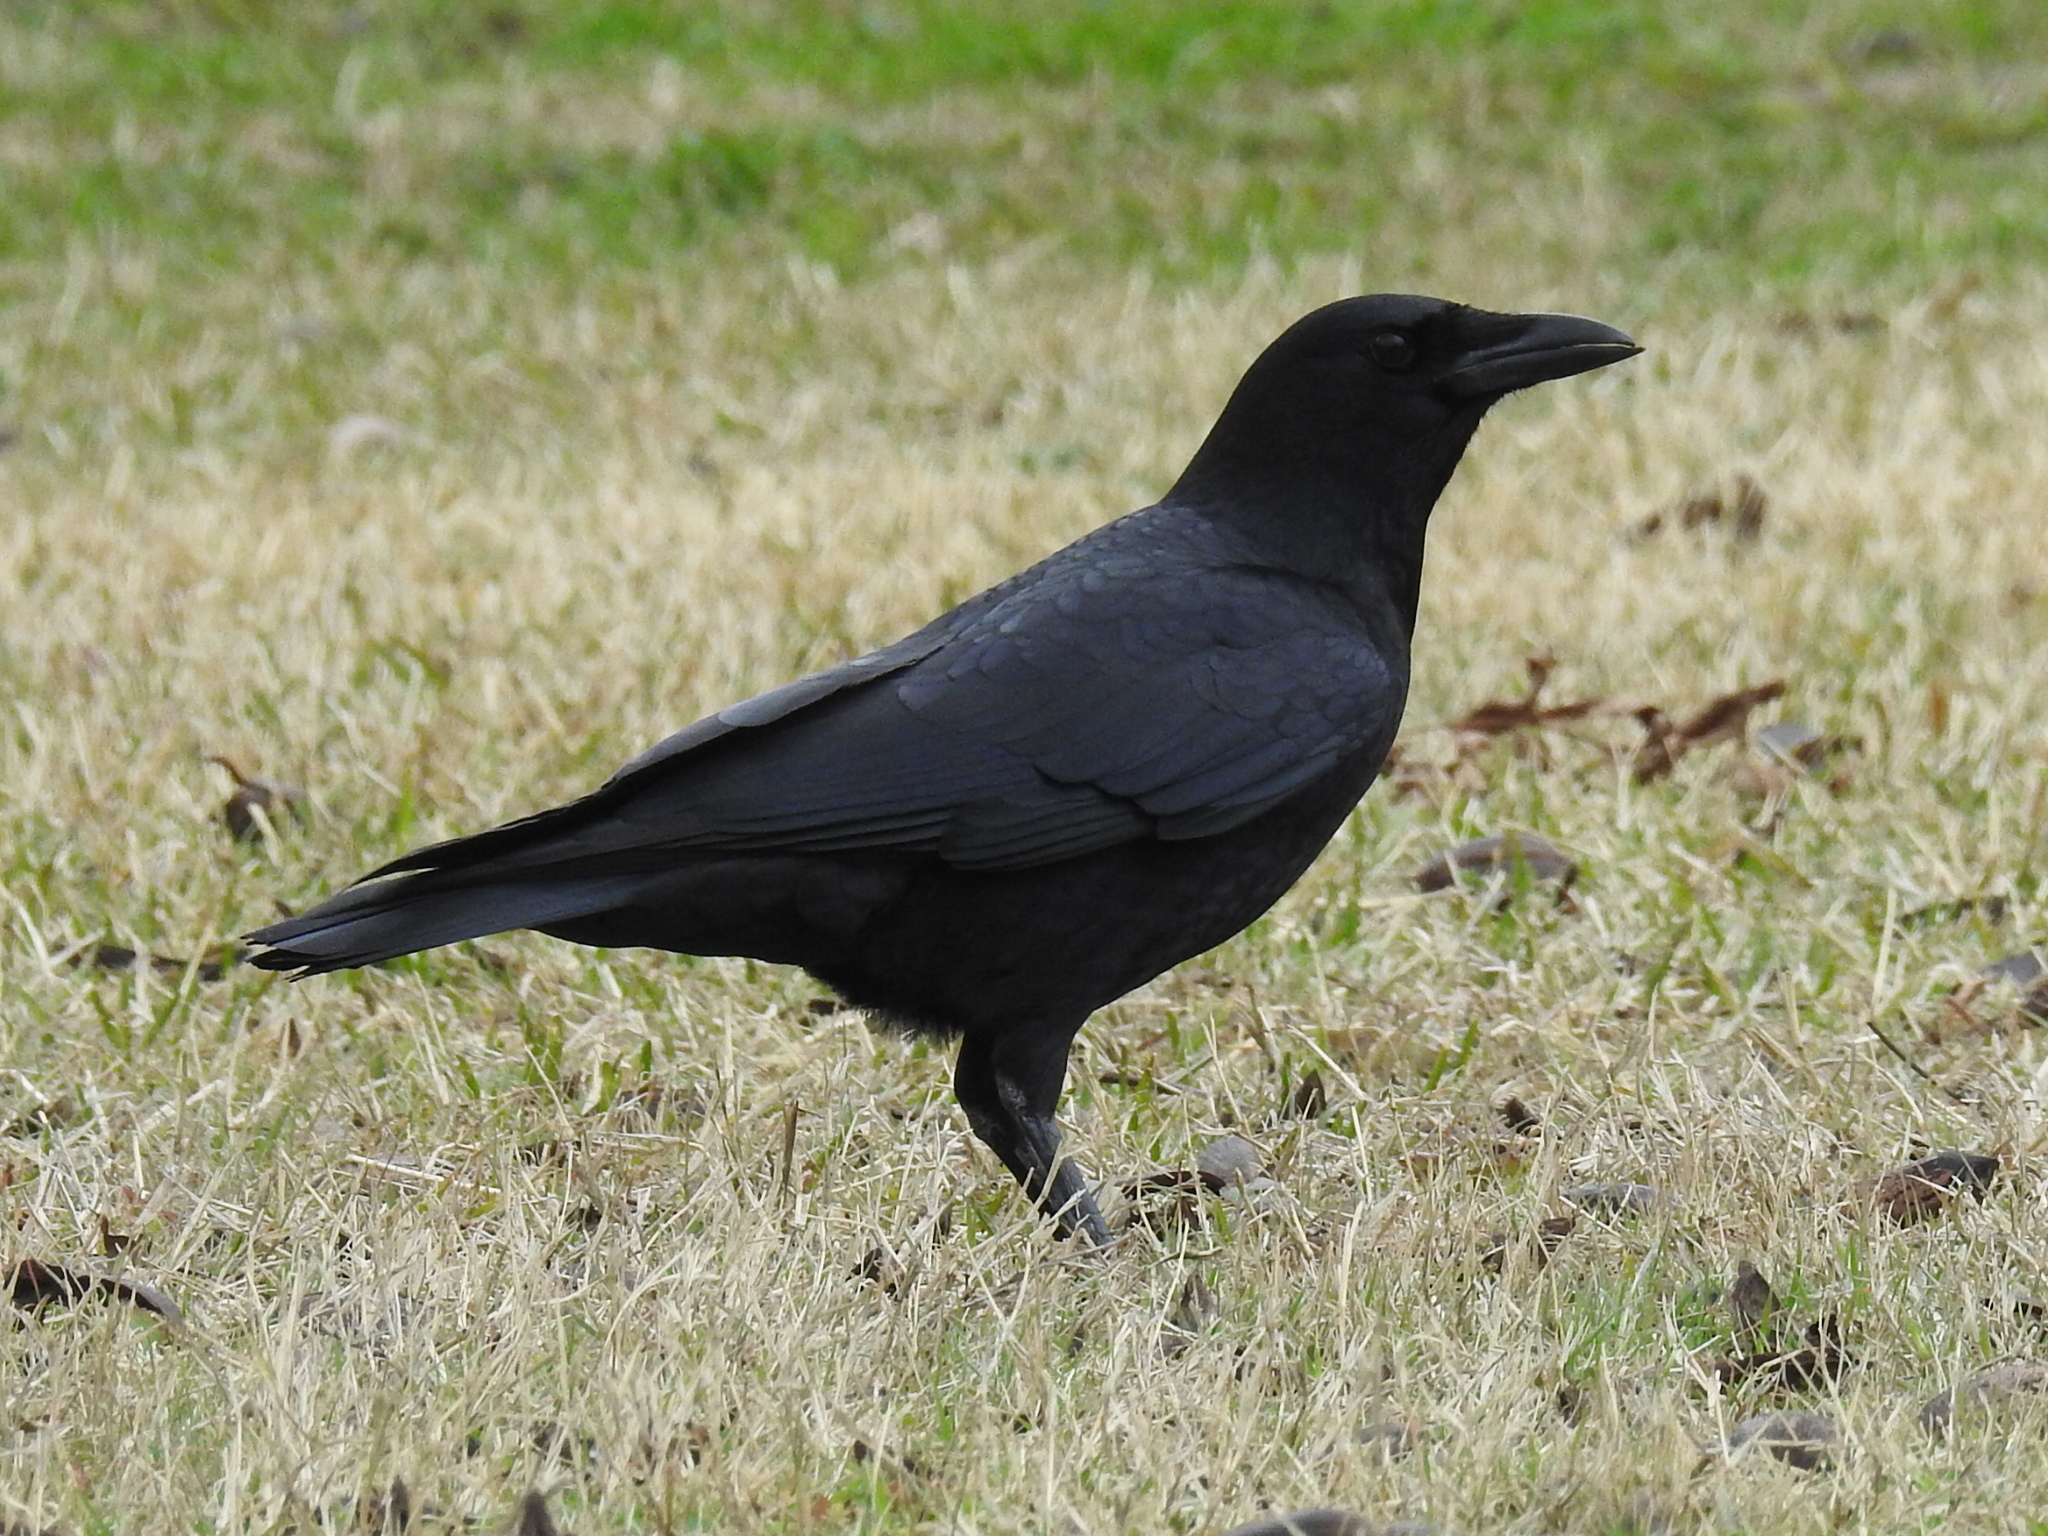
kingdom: Animalia
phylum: Chordata
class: Aves
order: Passeriformes
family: Corvidae
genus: Corvus
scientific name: Corvus brachyrhynchos
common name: American crow
